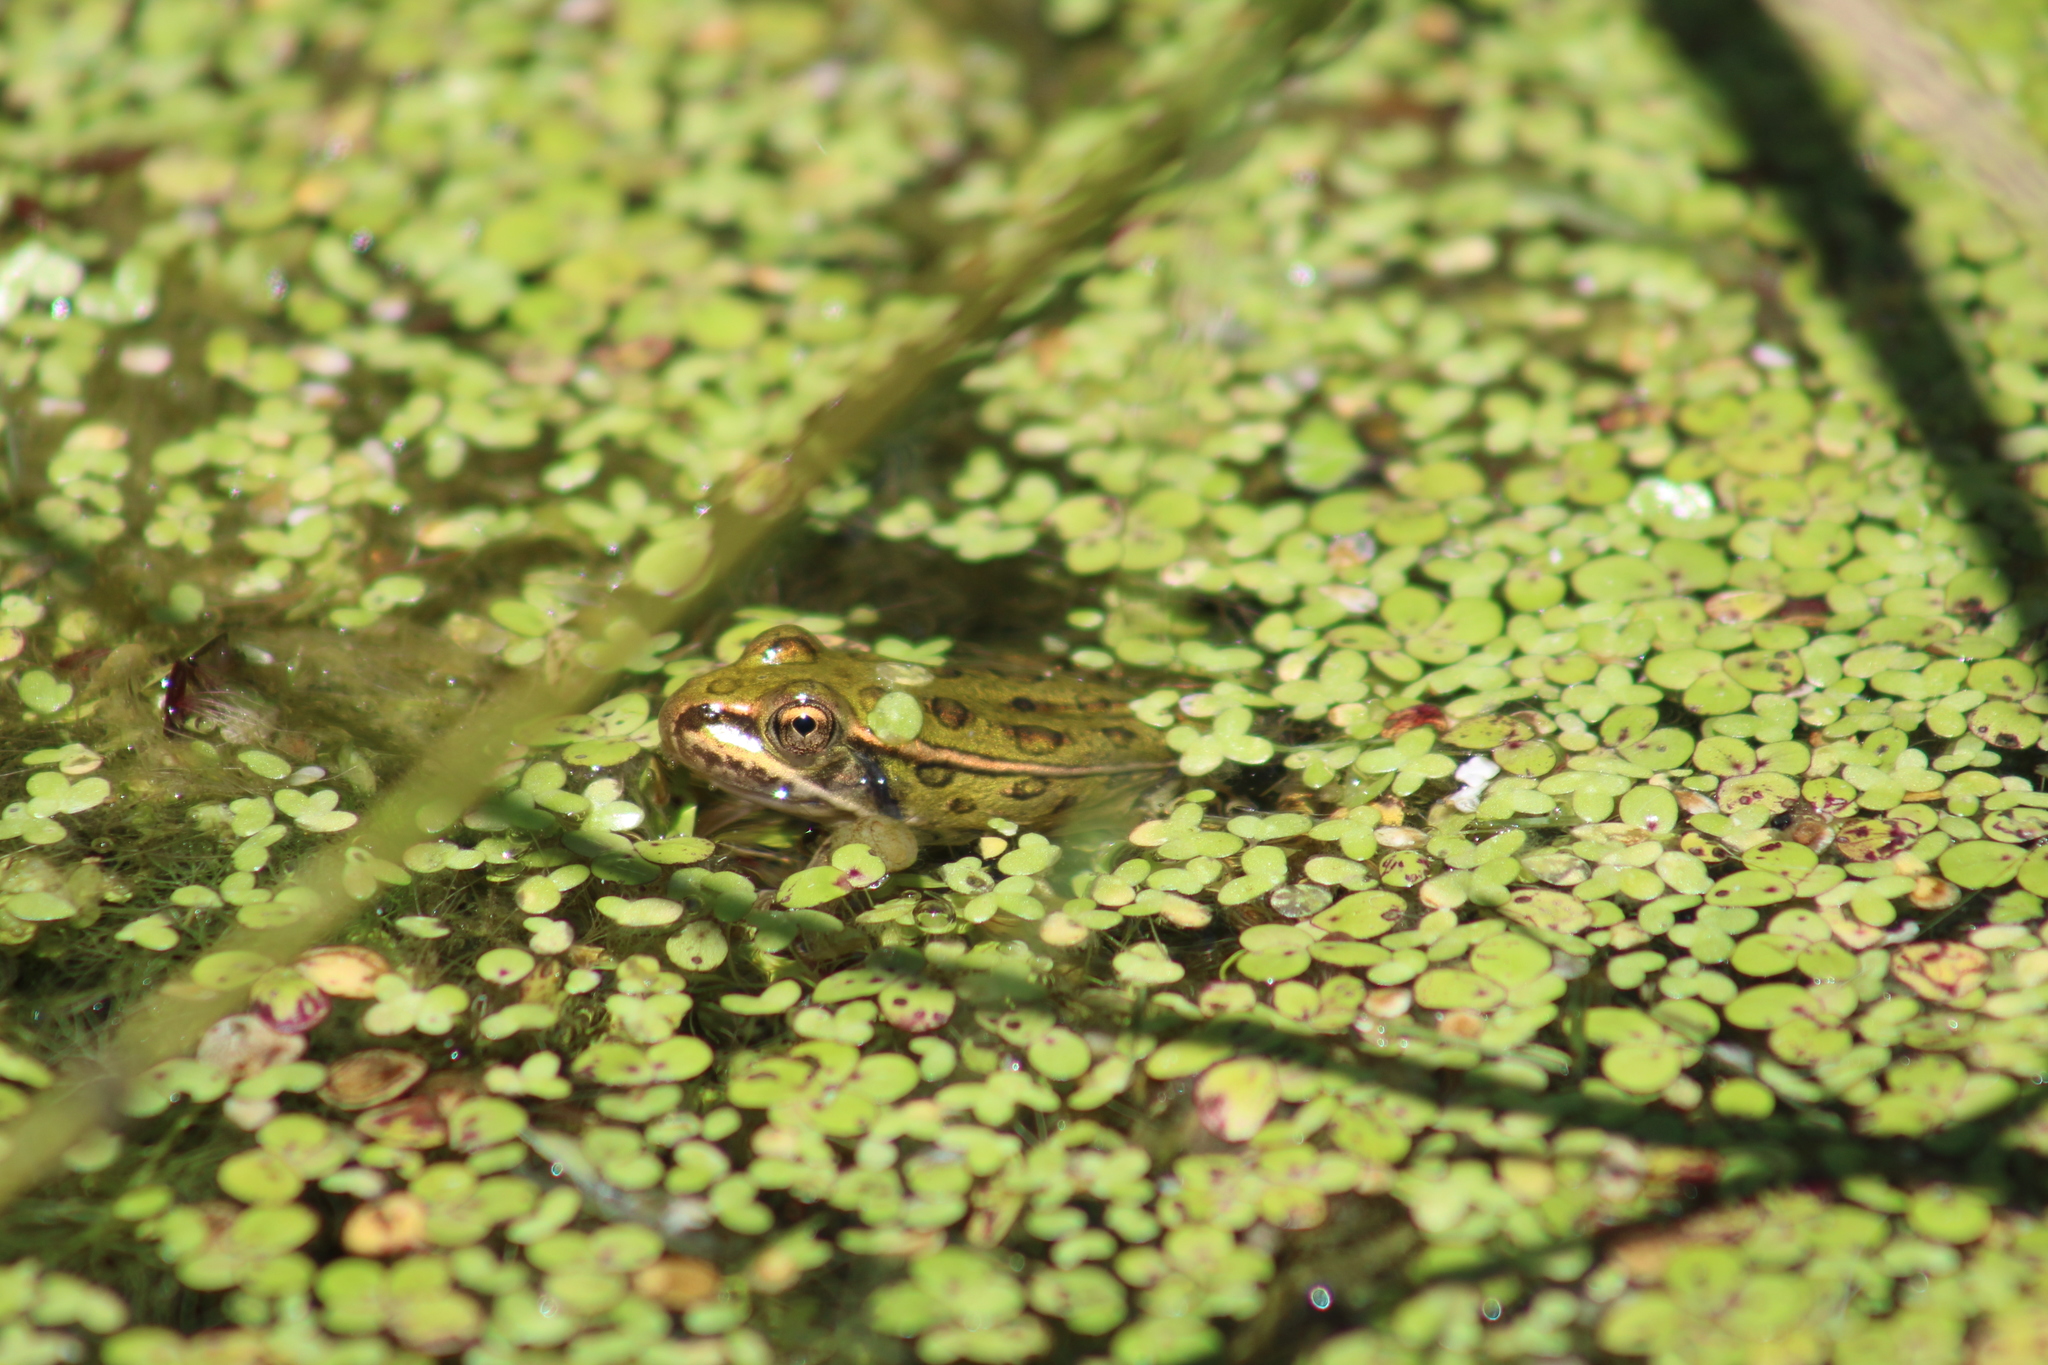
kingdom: Animalia
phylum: Chordata
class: Amphibia
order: Anura
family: Ranidae
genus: Lithobates
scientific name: Lithobates pipiens
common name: Northern leopard frog
